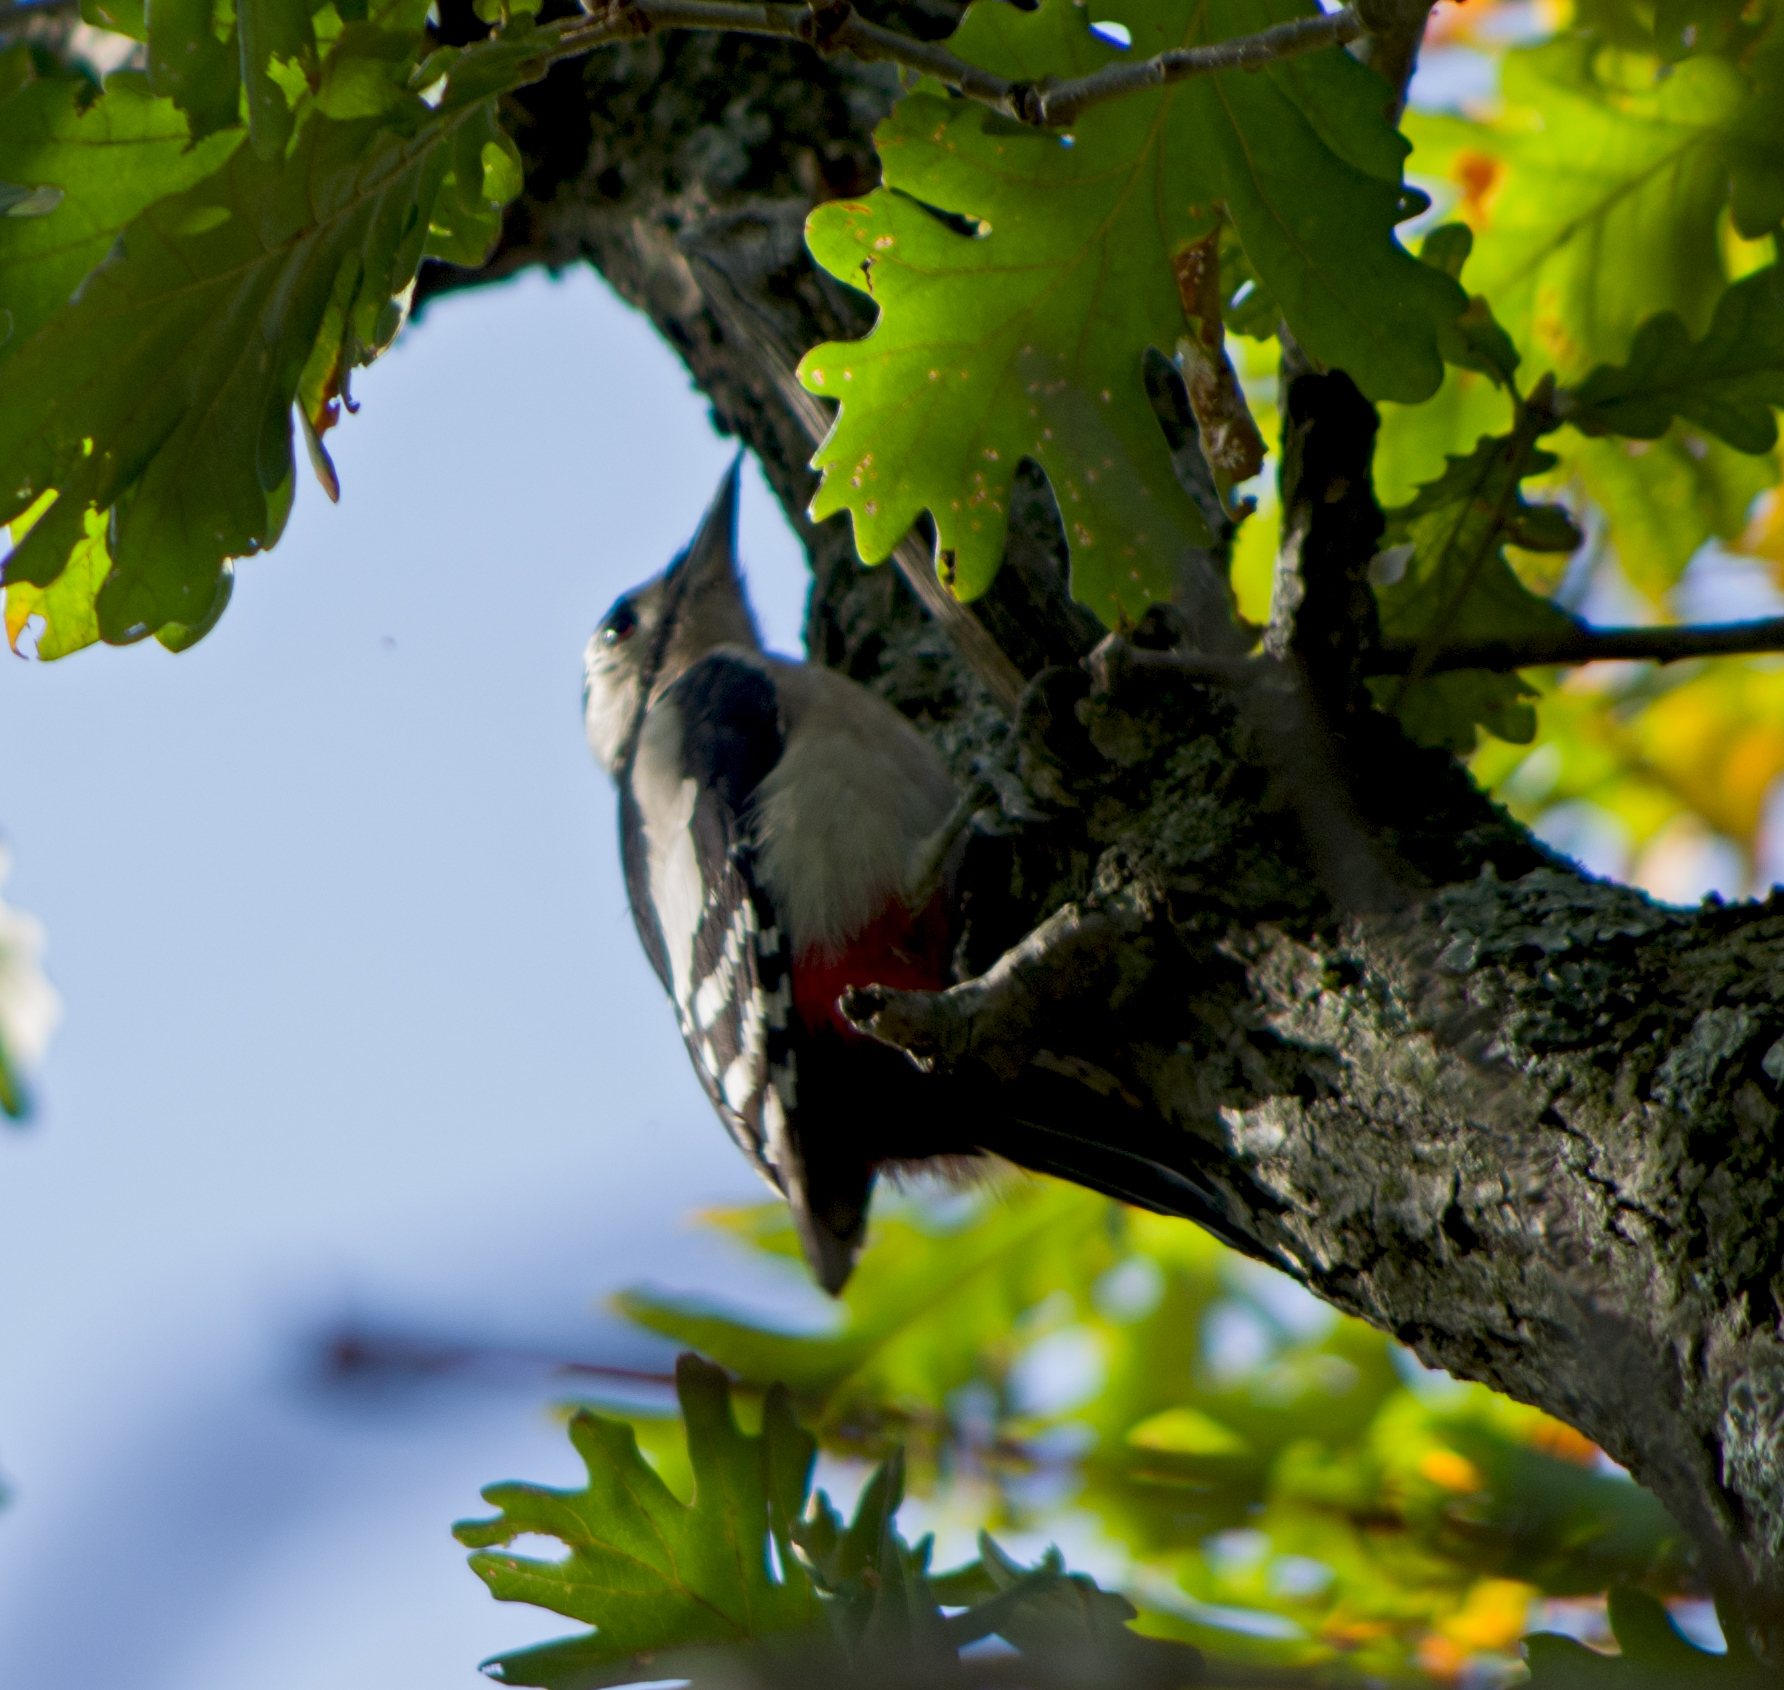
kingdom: Animalia
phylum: Chordata
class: Aves
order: Piciformes
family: Picidae
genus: Dendrocopos
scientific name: Dendrocopos major
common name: Great spotted woodpecker
